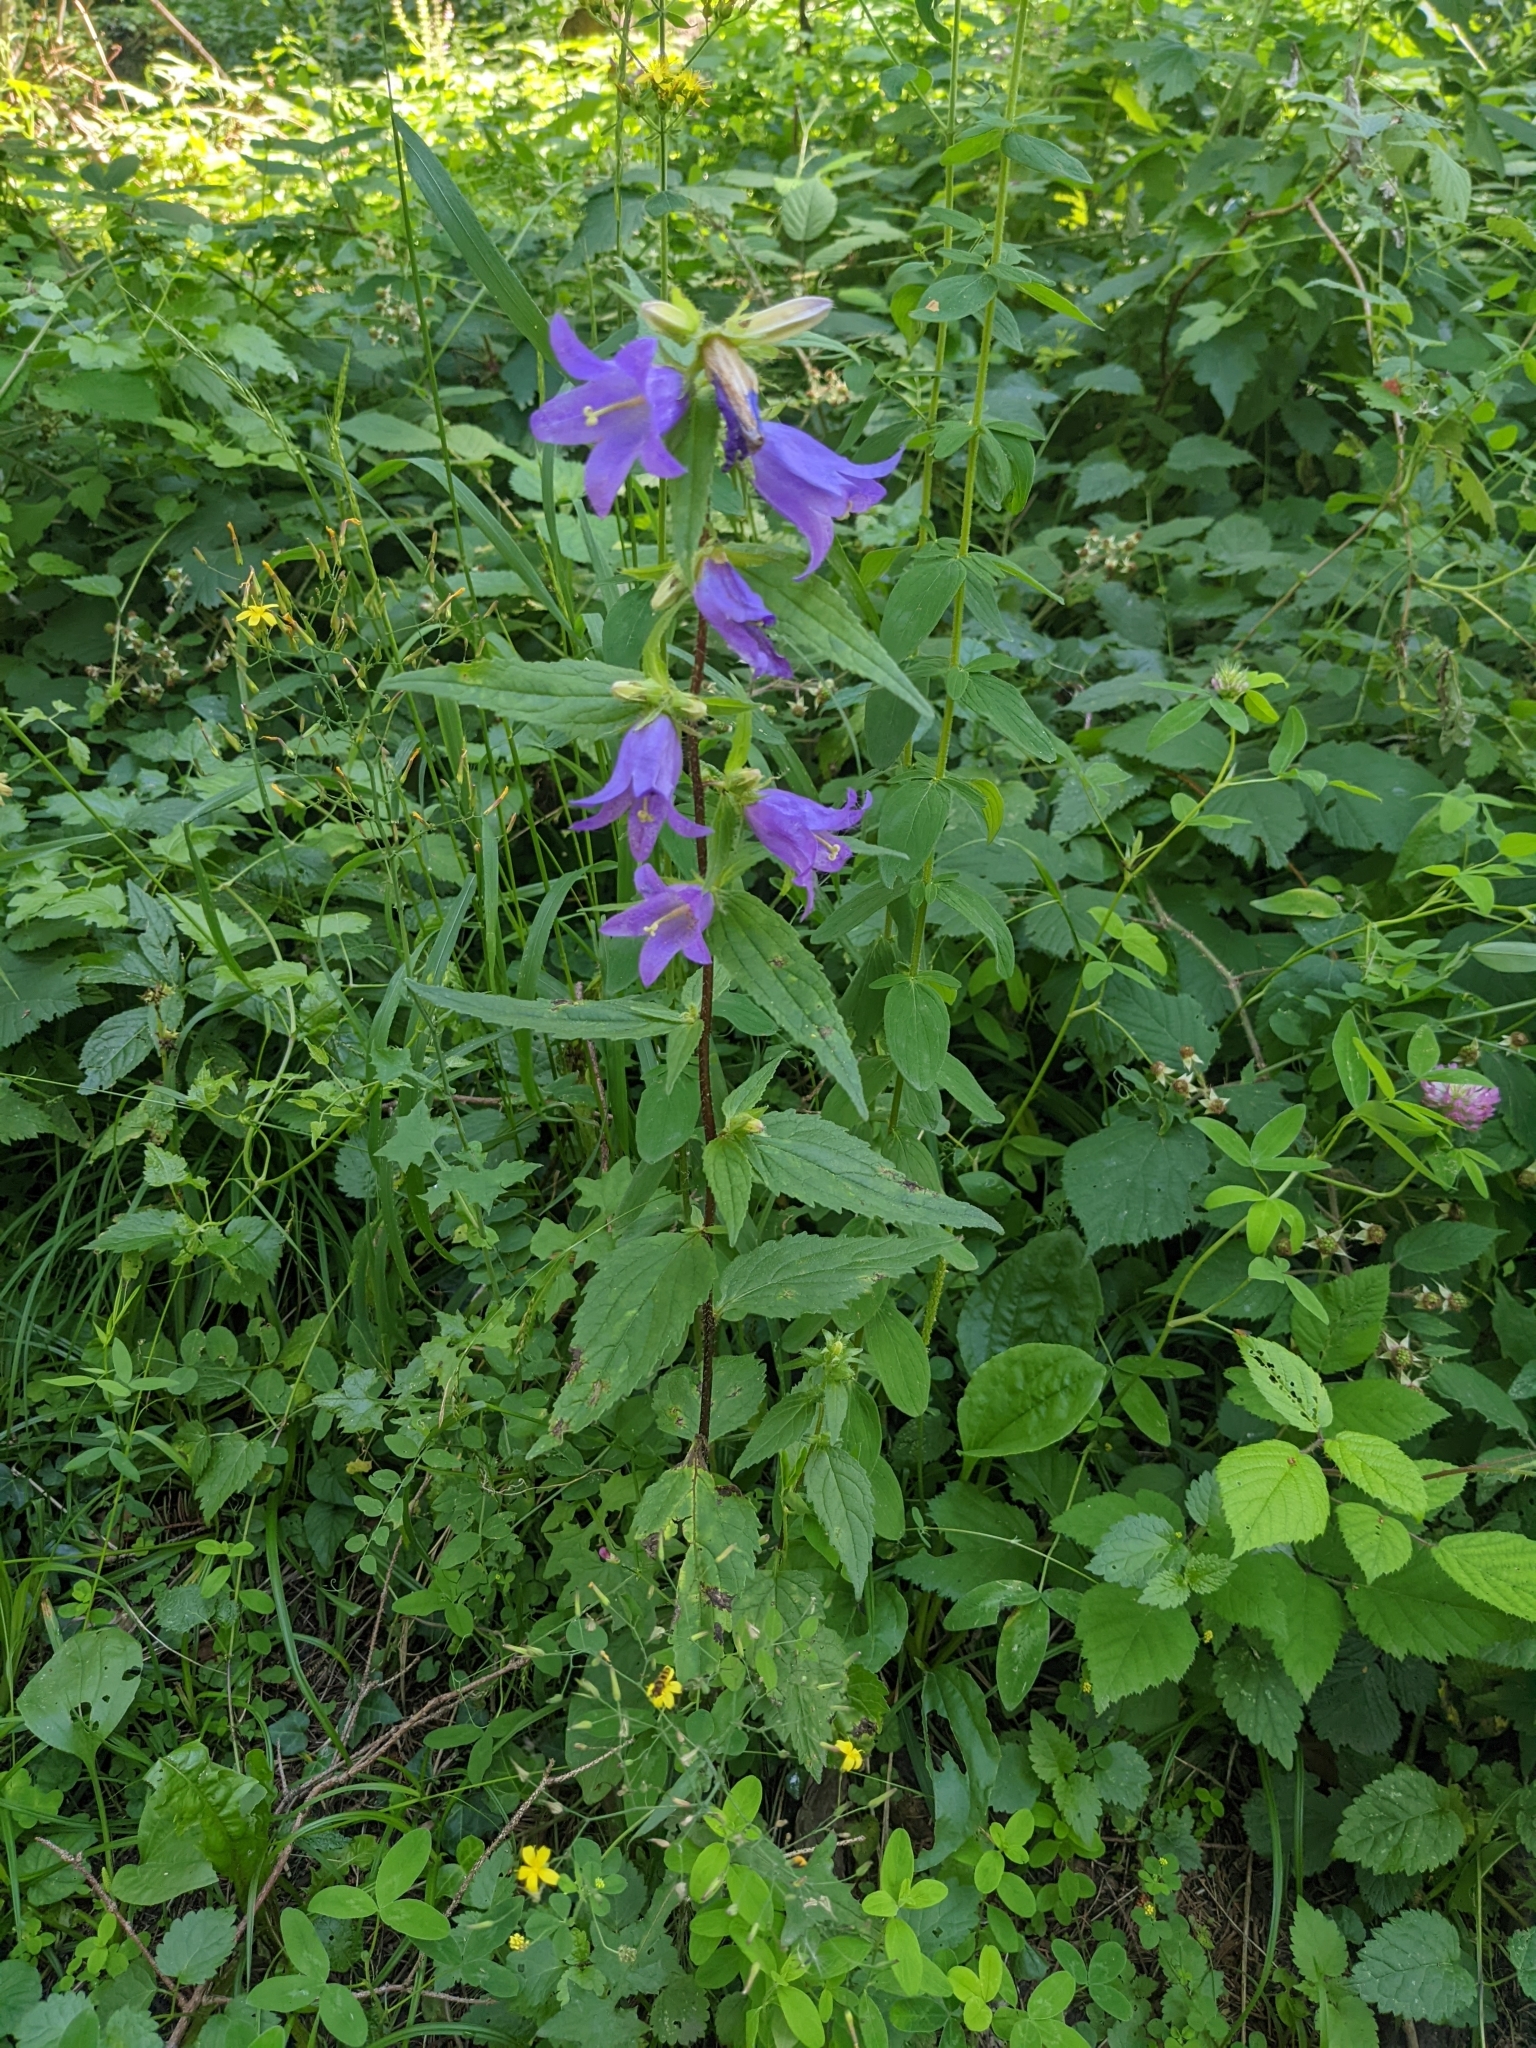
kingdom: Plantae
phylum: Tracheophyta
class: Magnoliopsida
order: Asterales
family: Campanulaceae
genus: Campanula
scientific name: Campanula trachelium
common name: Nettle-leaved bellflower
